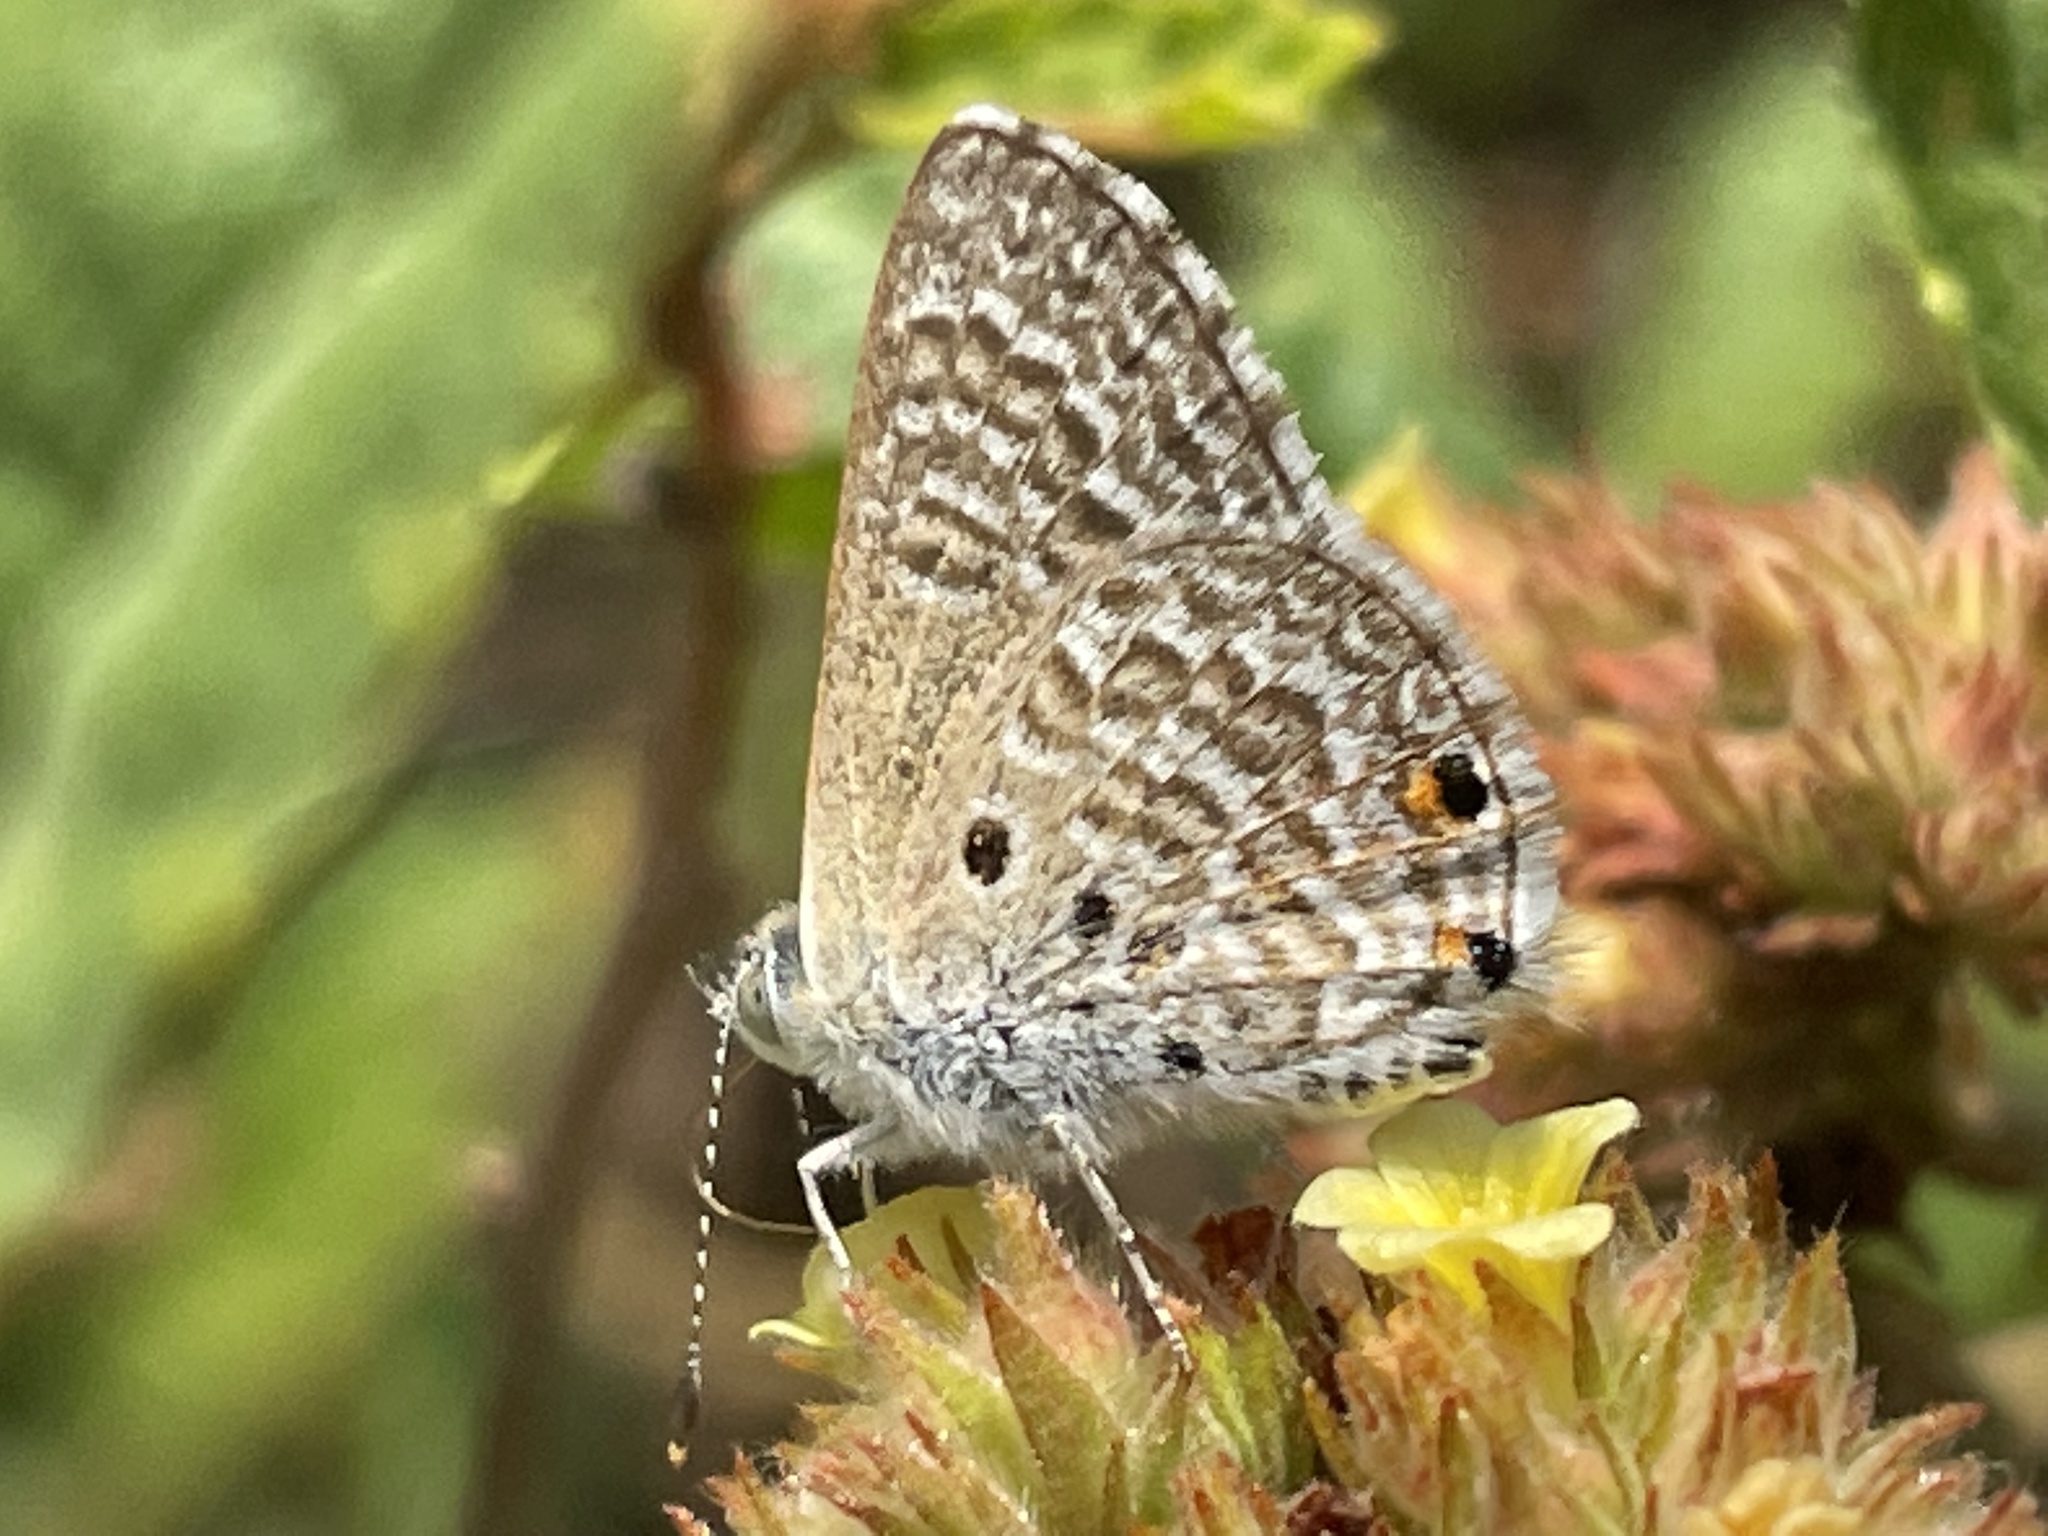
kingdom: Animalia
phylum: Arthropoda
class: Insecta
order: Lepidoptera
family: Lycaenidae
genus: Anthene
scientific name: Anthene talboti
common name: Talbot's hairtail
